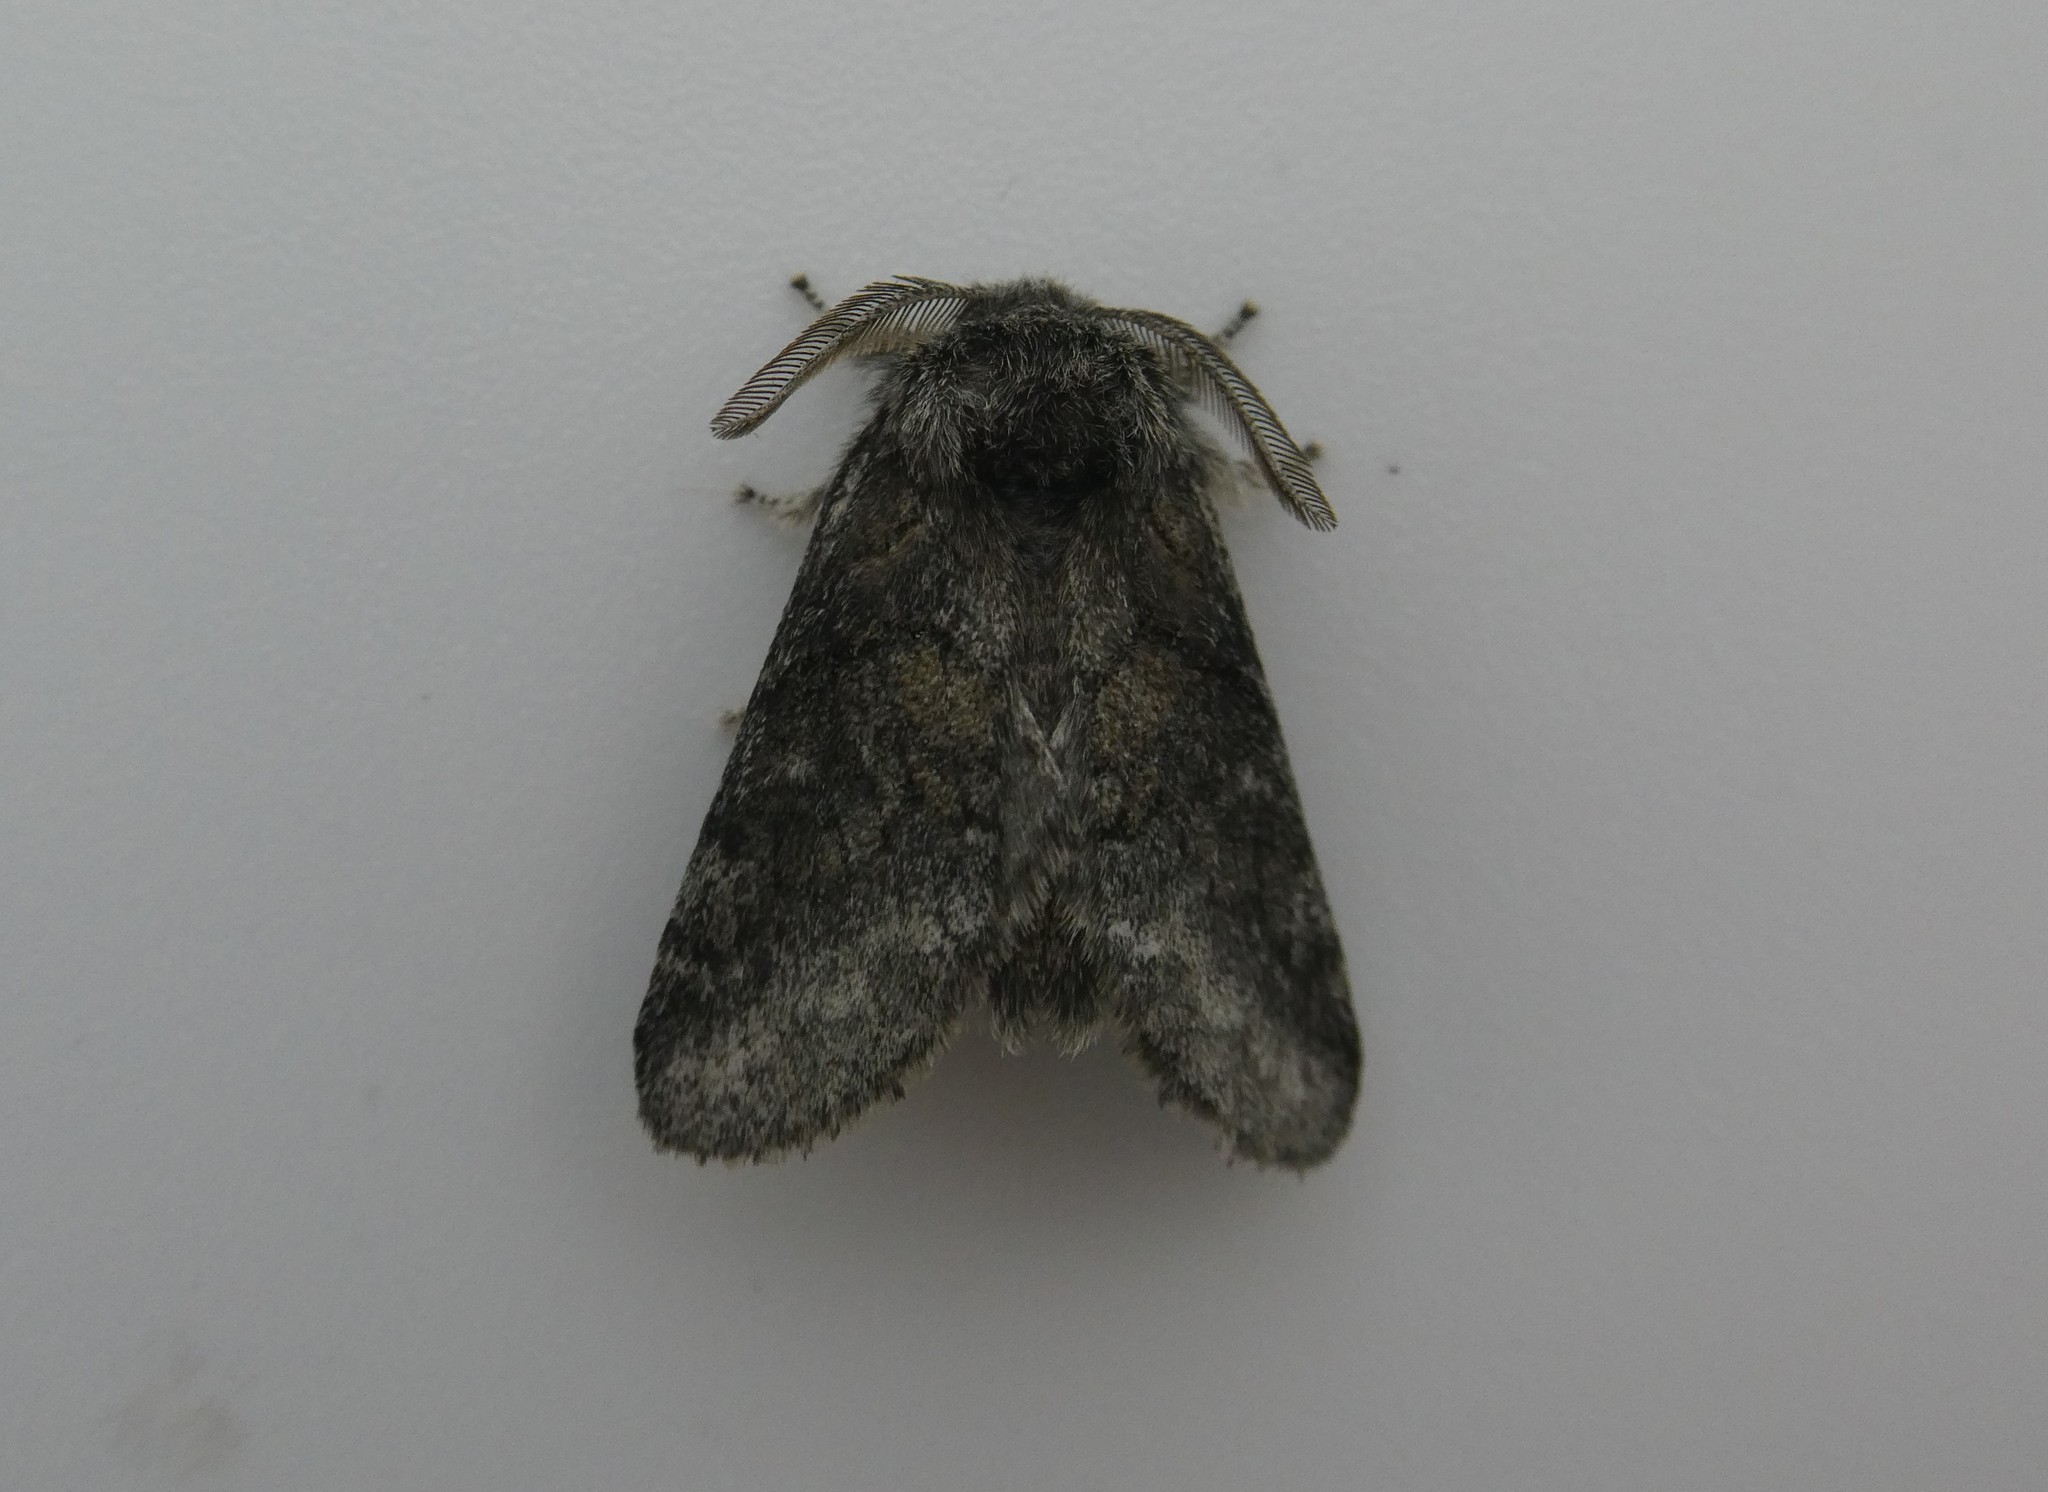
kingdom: Animalia
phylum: Arthropoda
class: Insecta
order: Lepidoptera
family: Notodontidae
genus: Gluphisia
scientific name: Gluphisia septentrionis
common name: Common gluphisia
